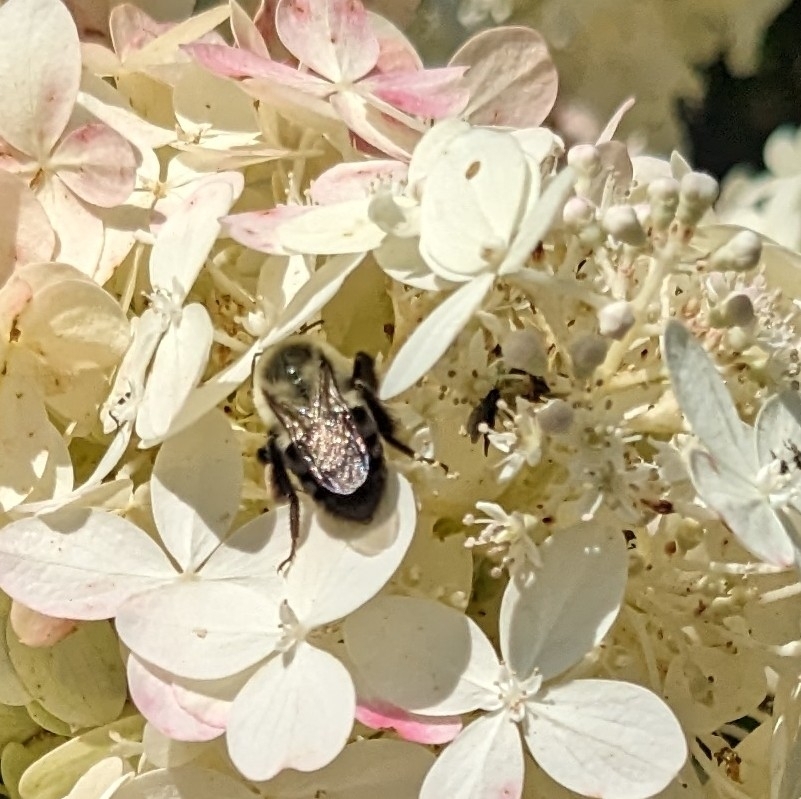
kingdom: Animalia
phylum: Arthropoda
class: Insecta
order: Hymenoptera
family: Apidae
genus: Bombus
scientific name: Bombus impatiens
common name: Common eastern bumble bee
